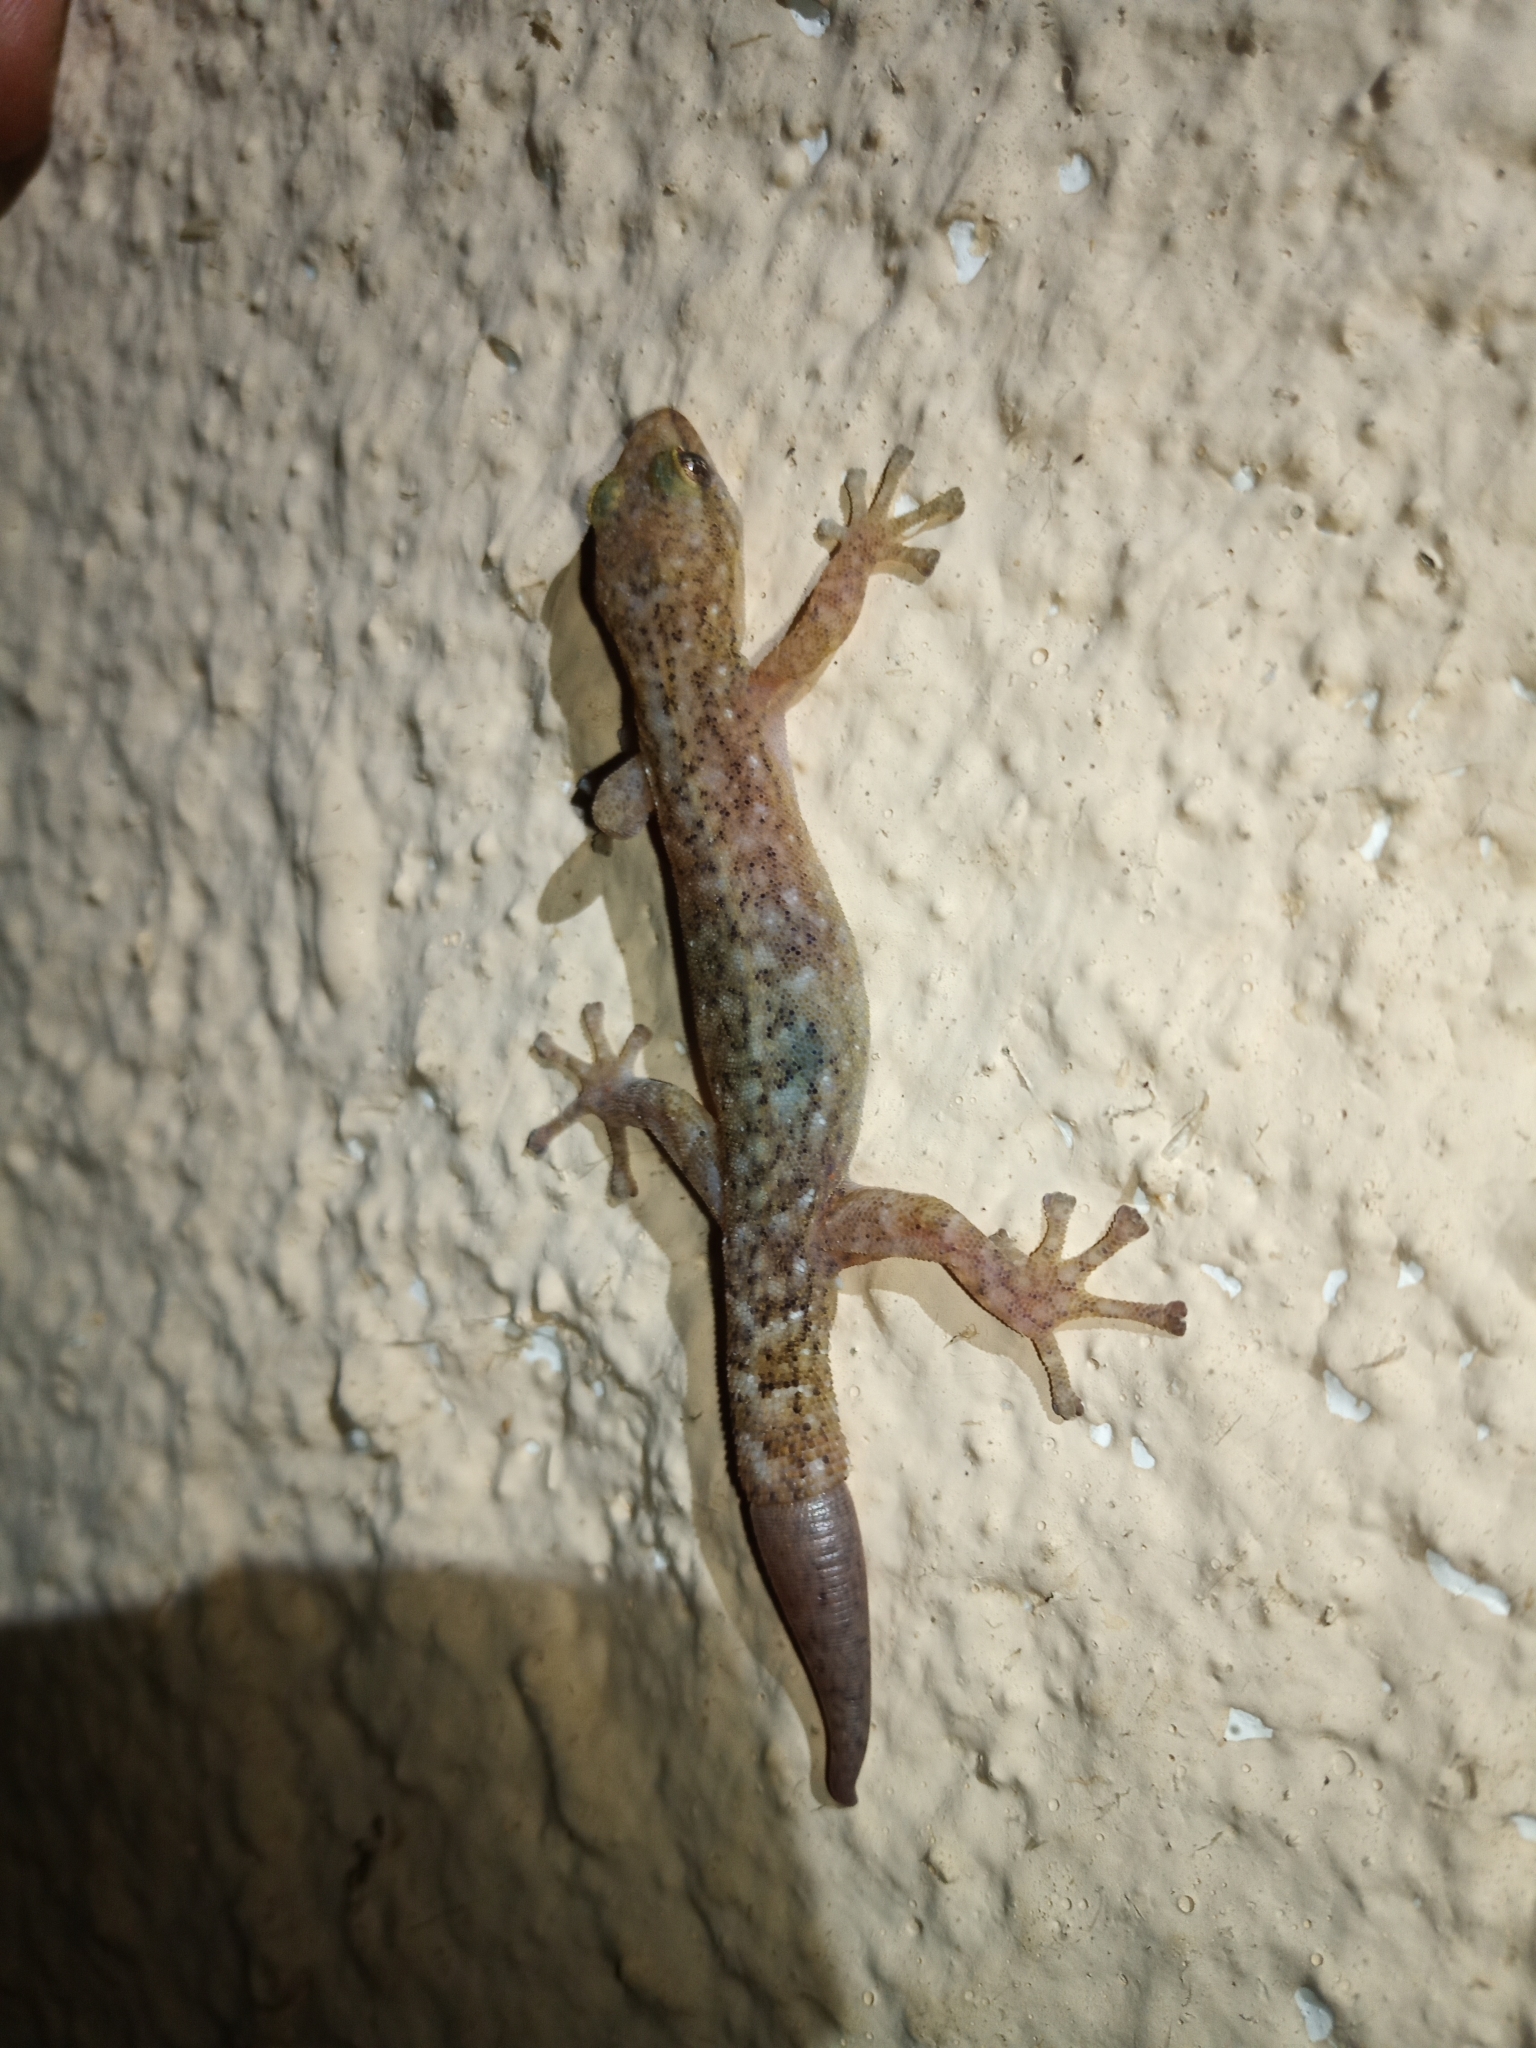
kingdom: Animalia
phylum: Chordata
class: Squamata
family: Gekkonidae
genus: Afrogecko
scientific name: Afrogecko porphyreus
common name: Marbled leaf-toed gecko
